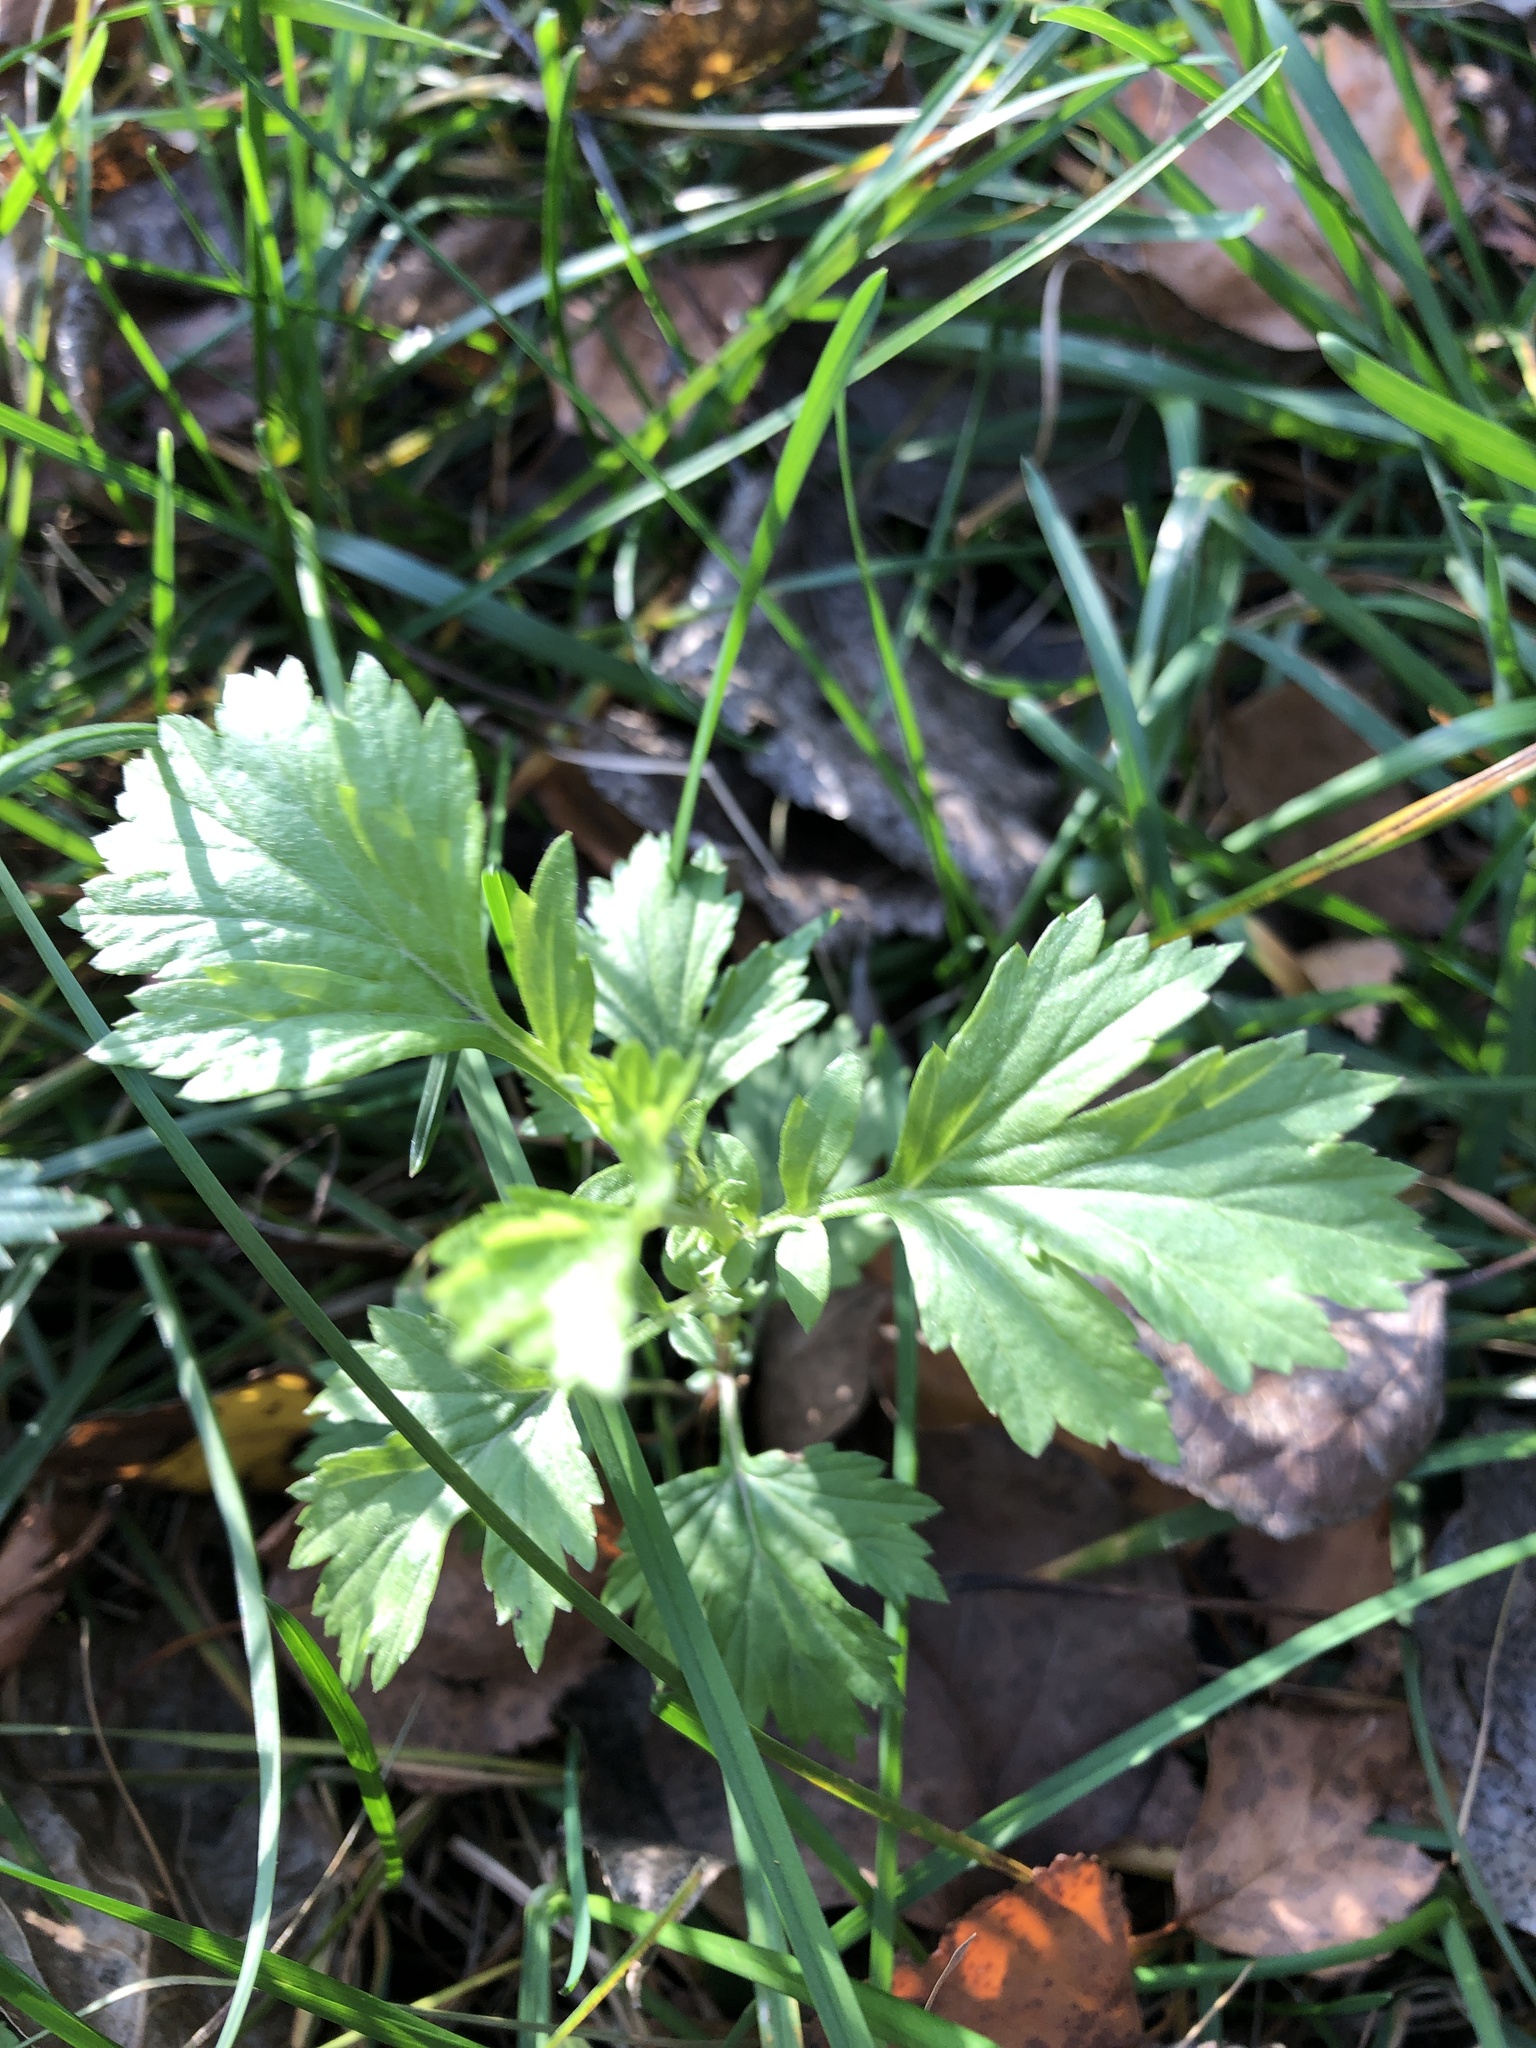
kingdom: Plantae
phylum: Tracheophyta
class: Magnoliopsida
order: Asterales
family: Asteraceae
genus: Artemisia
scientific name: Artemisia vulgaris
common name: Mugwort
